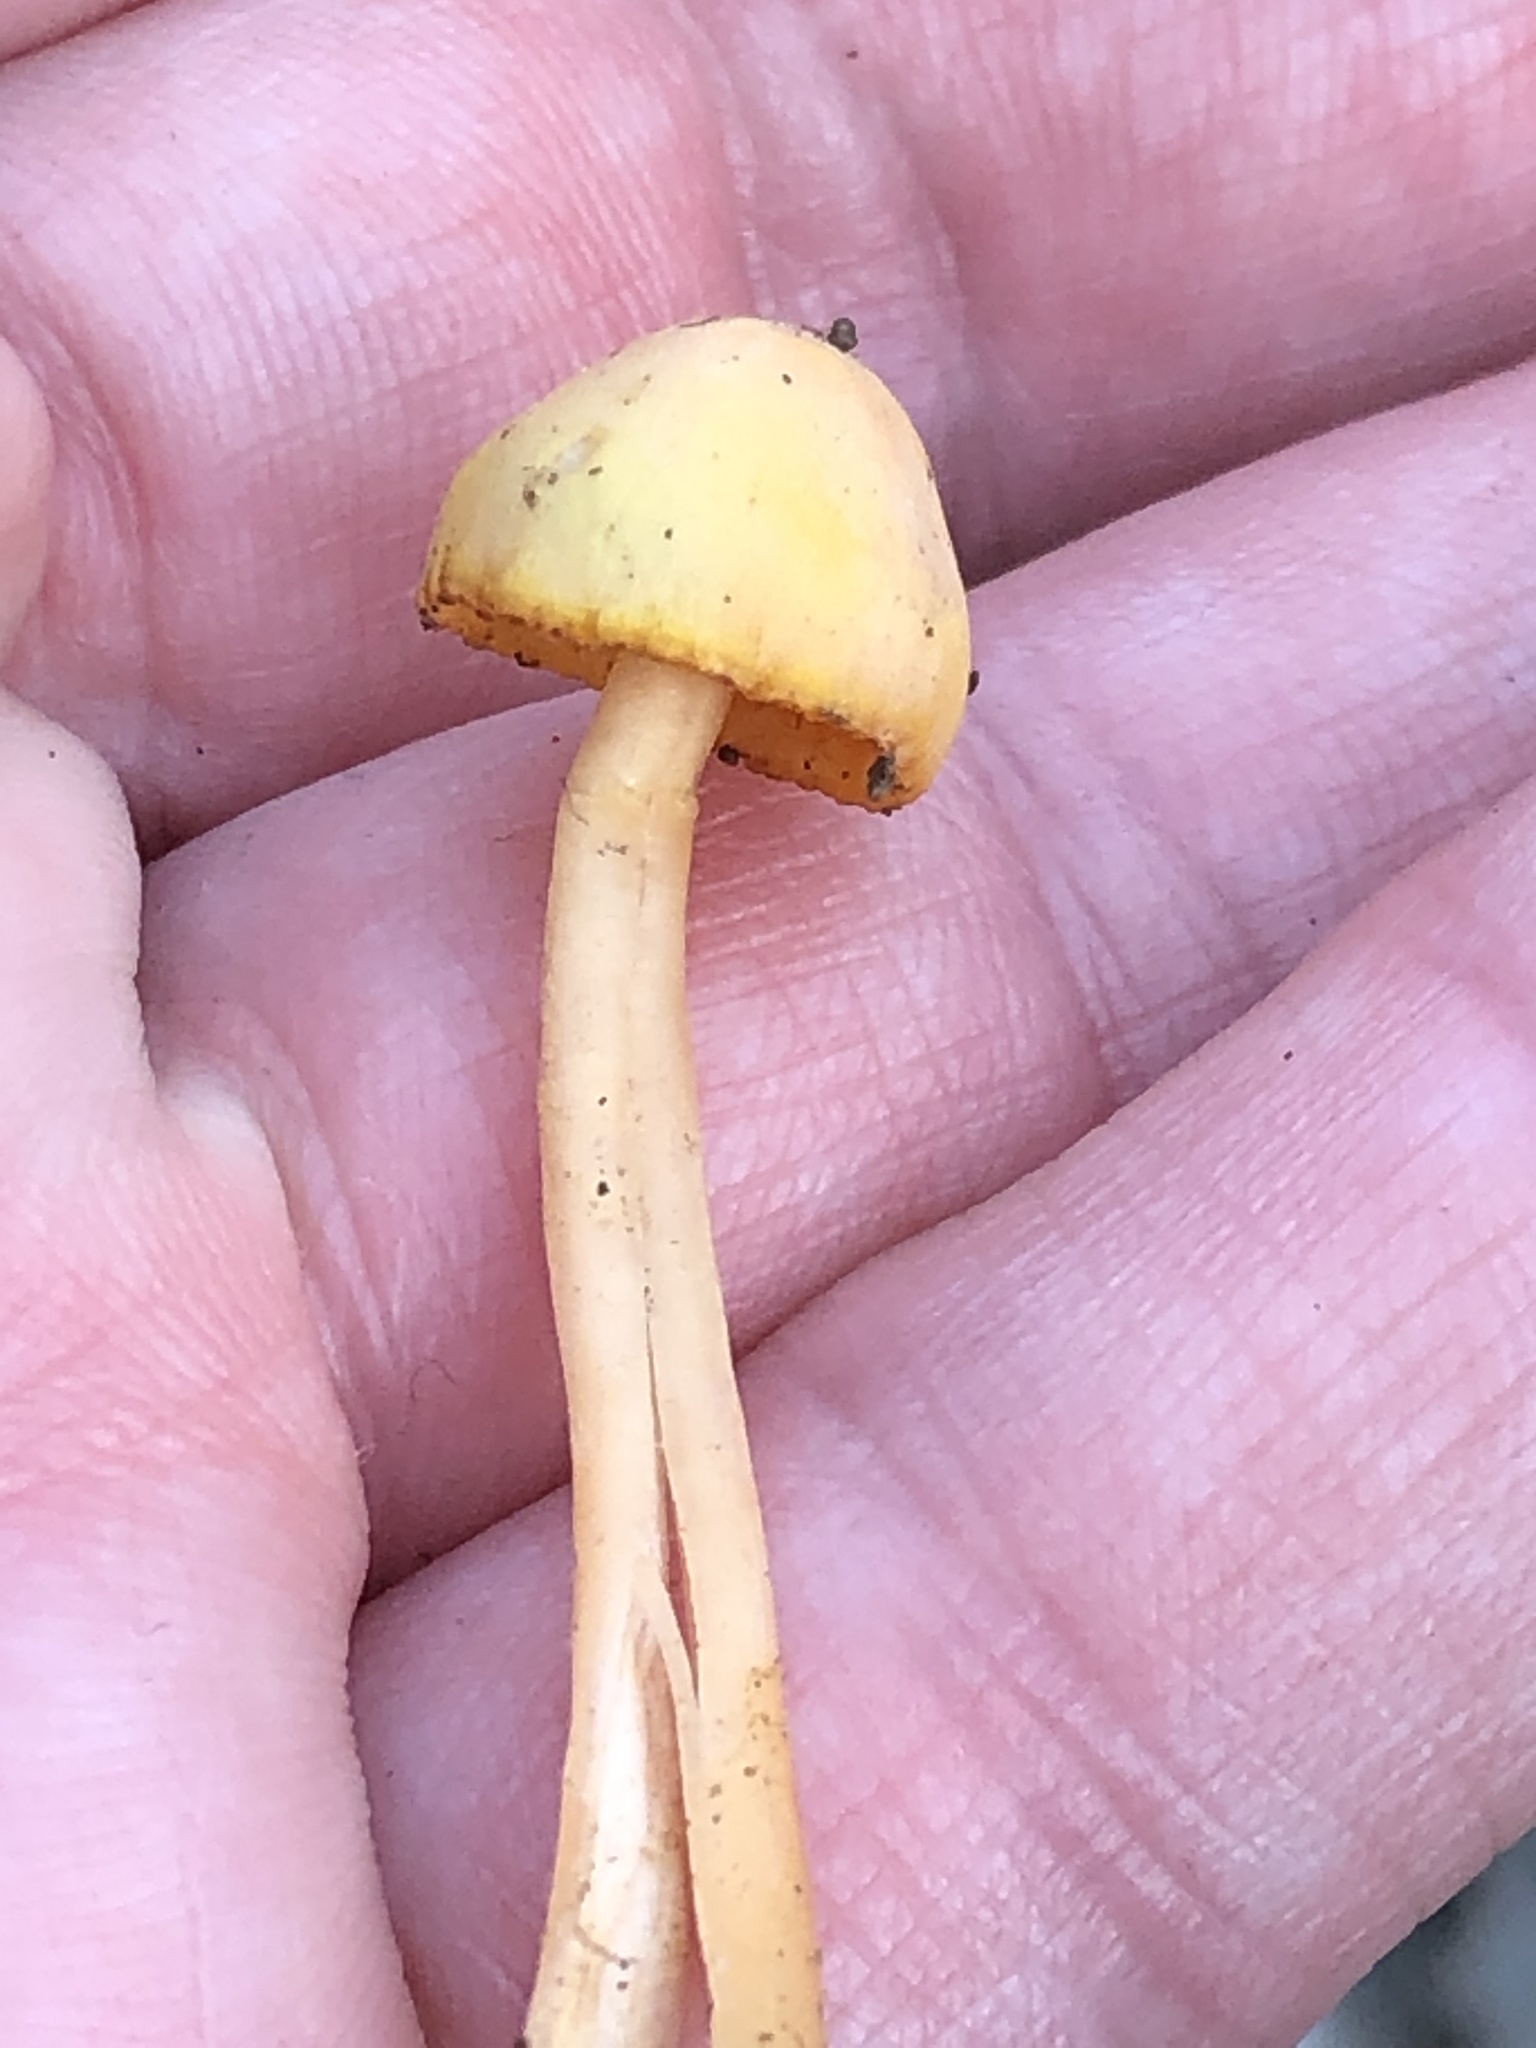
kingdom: Fungi
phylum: Basidiomycota
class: Agaricomycetes
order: Agaricales
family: Hygrophoraceae
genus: Humidicutis
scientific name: Humidicutis marginata
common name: Orange gilled waxcap
